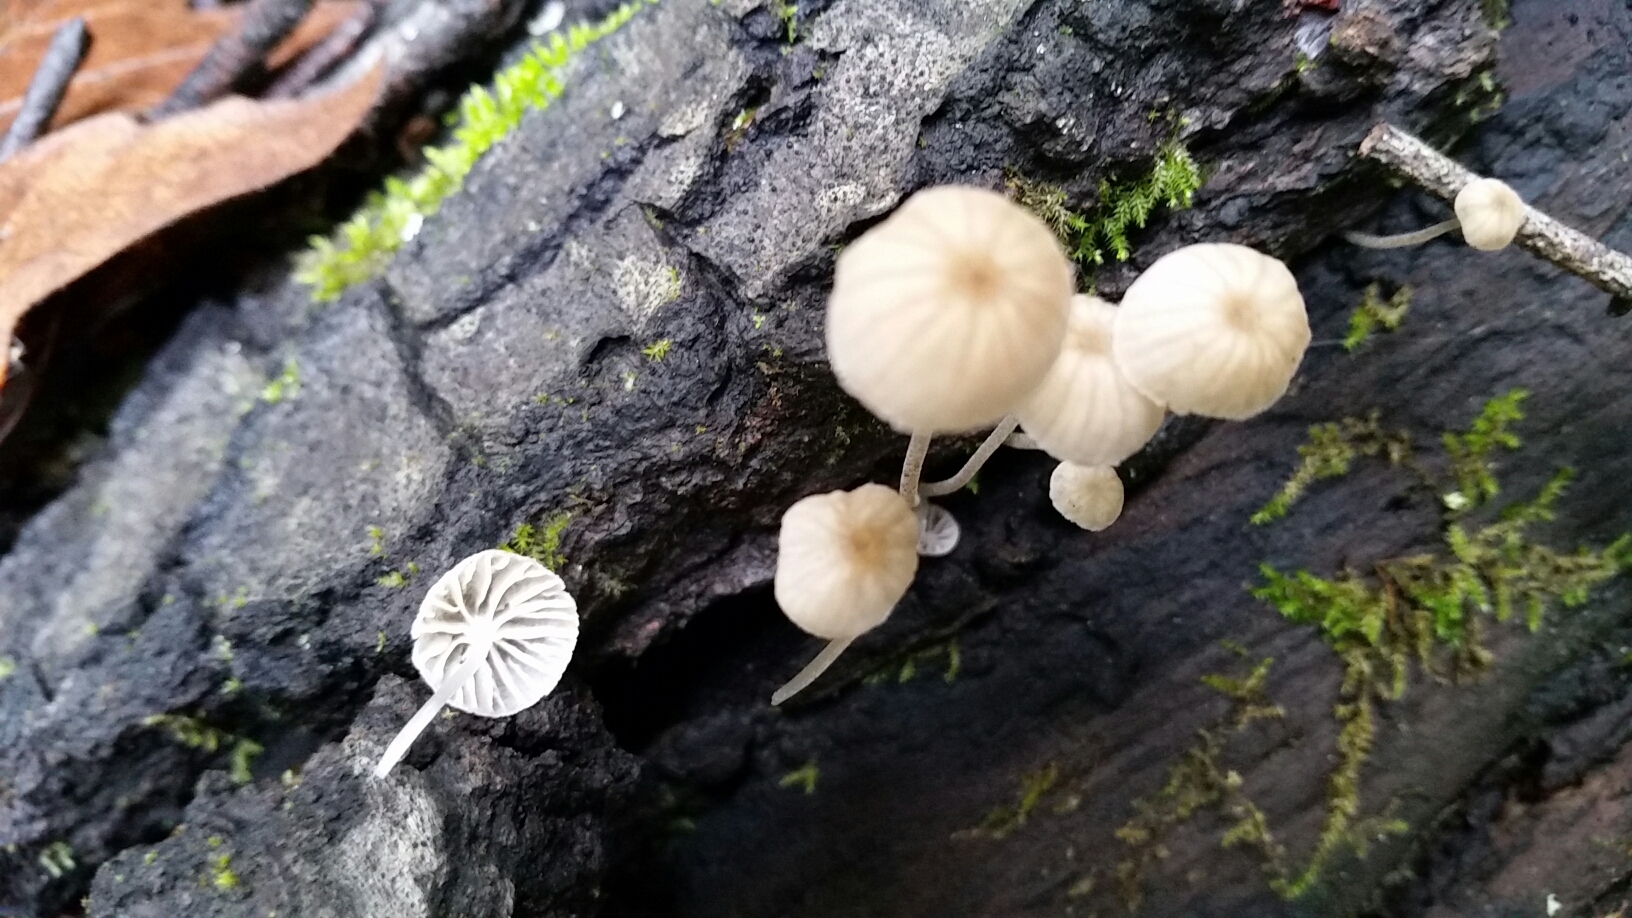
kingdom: Fungi
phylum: Basidiomycota
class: Agaricomycetes
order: Agaricales
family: Porotheleaceae
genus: Phloeomana
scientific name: Phloeomana speirea
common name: Bark bonnet
